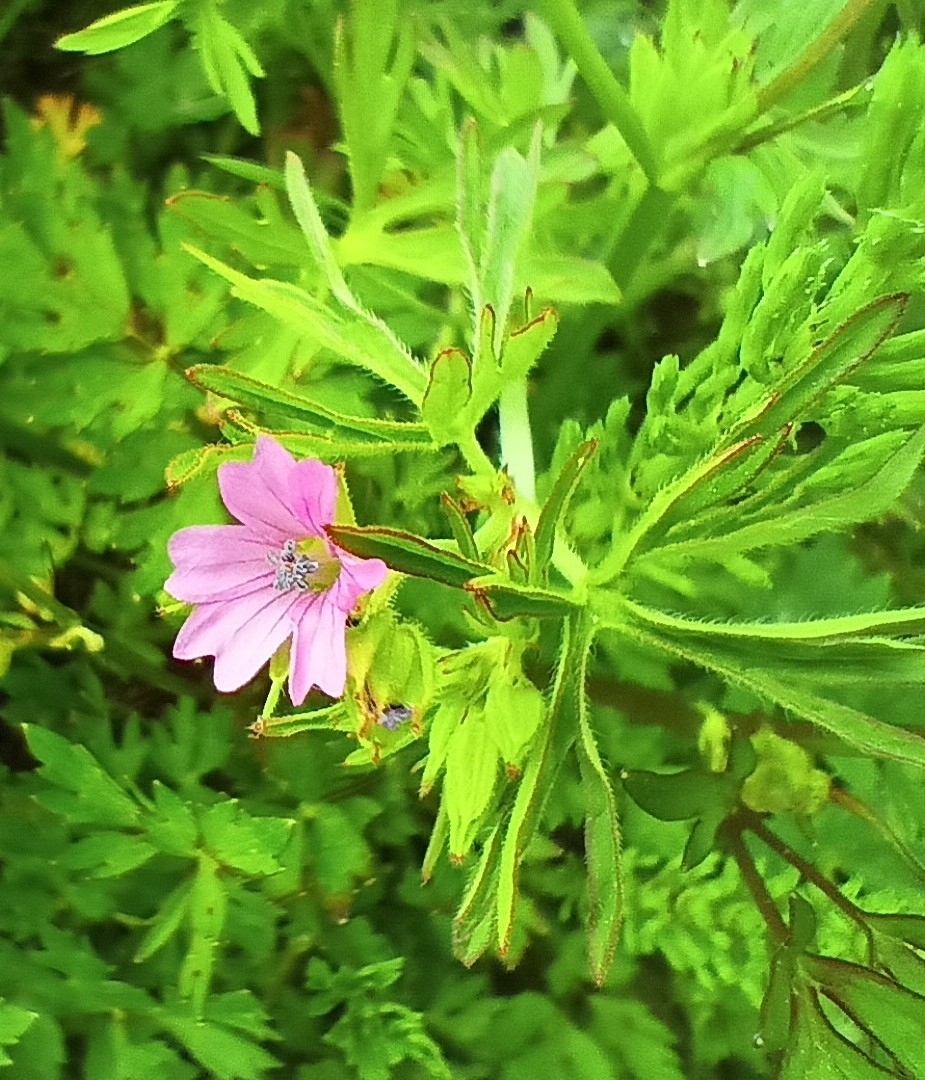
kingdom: Plantae
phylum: Tracheophyta
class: Magnoliopsida
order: Geraniales
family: Geraniaceae
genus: Geranium
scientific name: Geranium dissectum
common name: Cut-leaved crane's-bill
